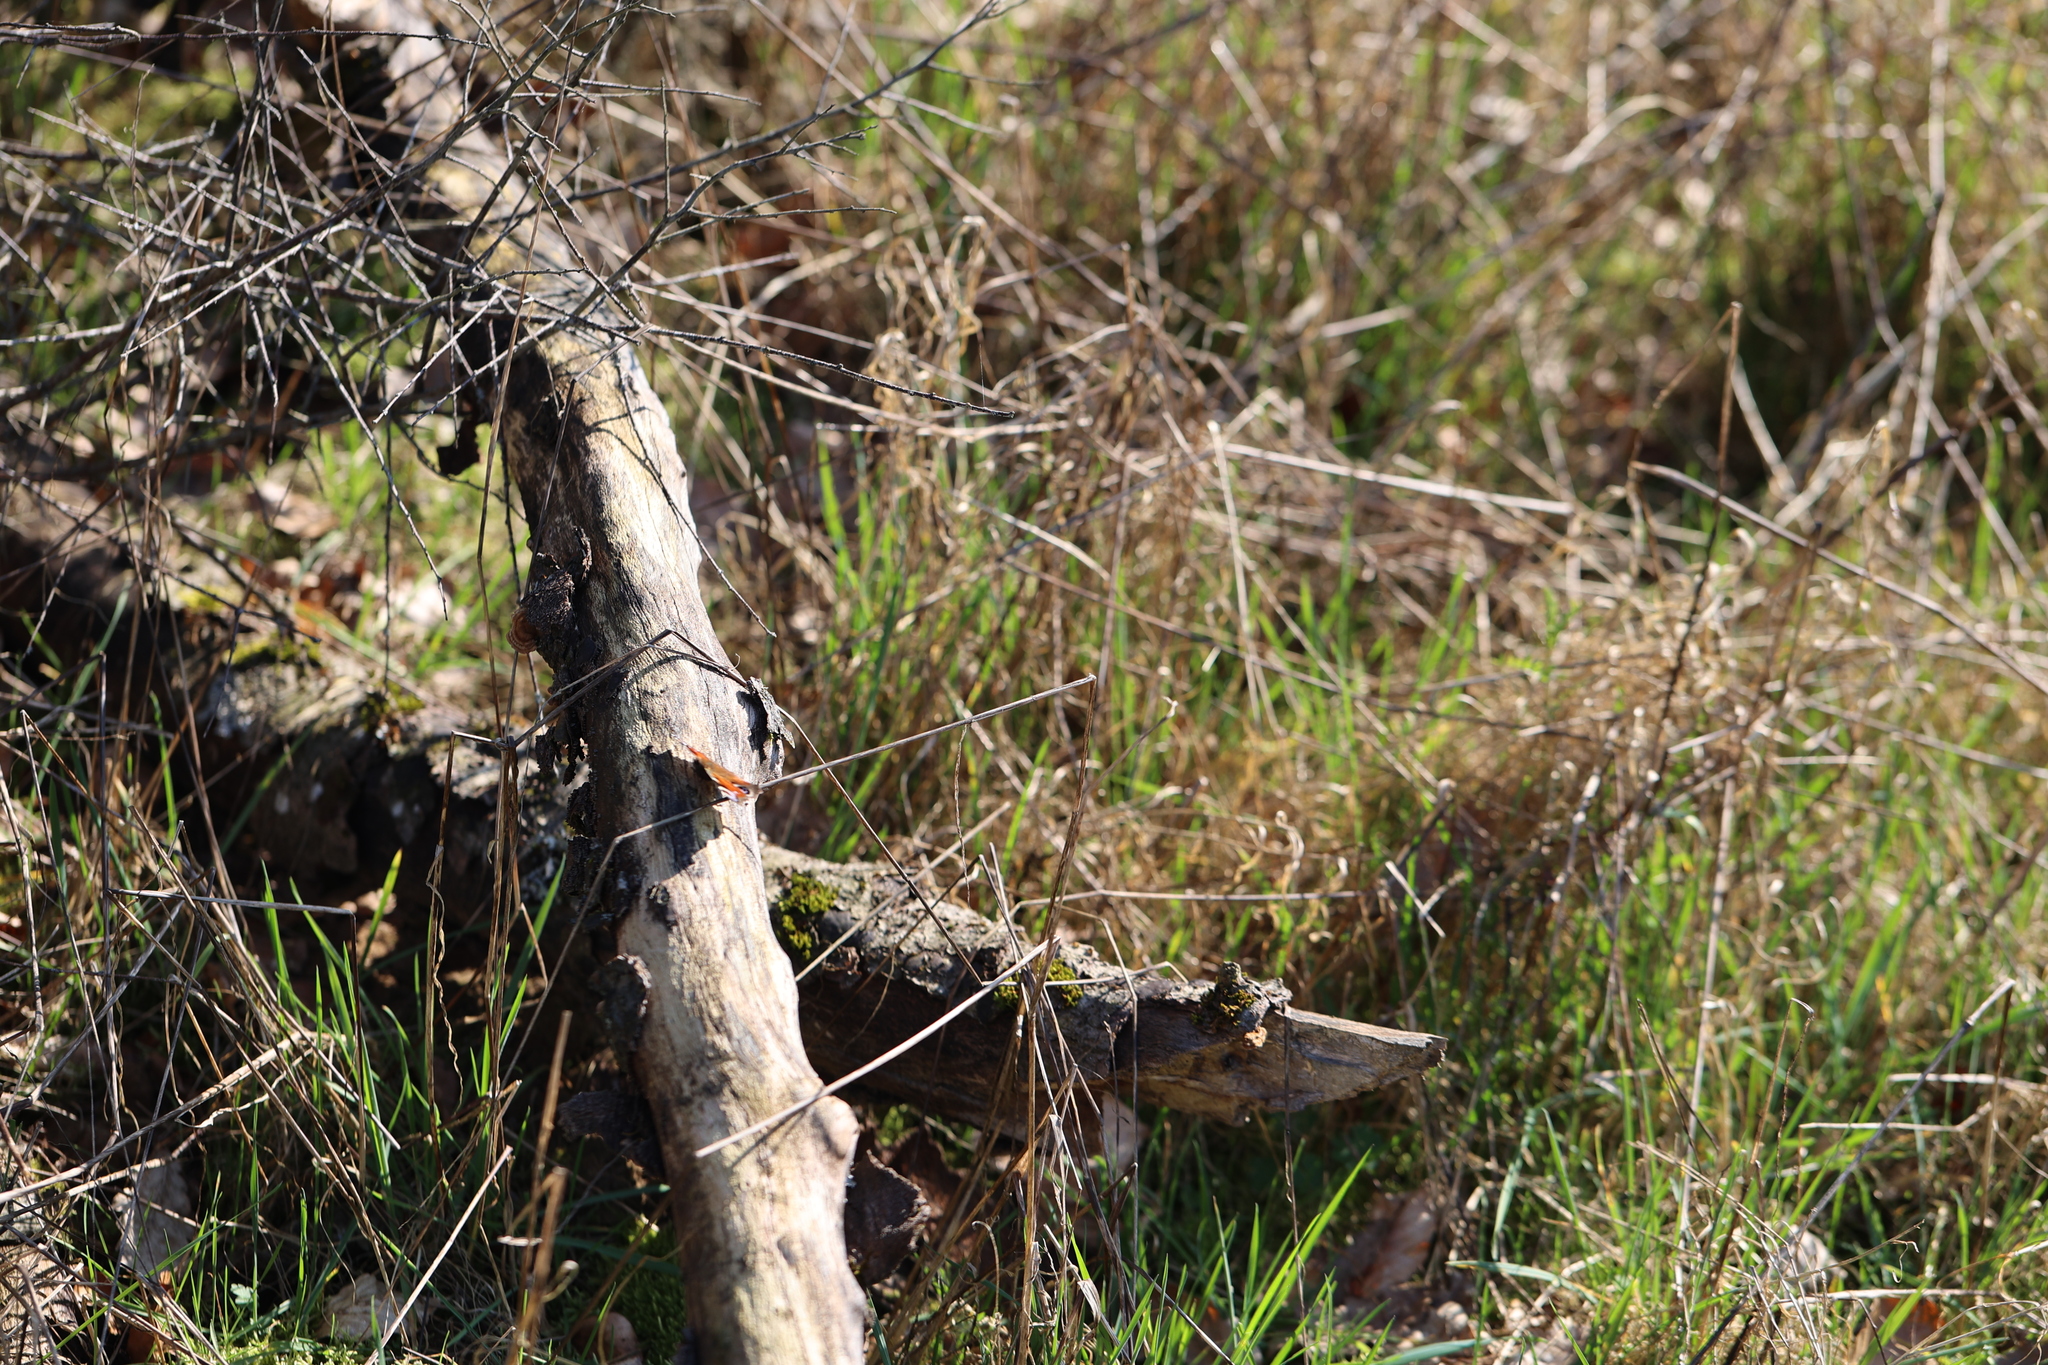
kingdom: Animalia
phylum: Arthropoda
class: Insecta
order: Lepidoptera
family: Nymphalidae
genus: Aglais
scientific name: Aglais io
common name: Peacock
